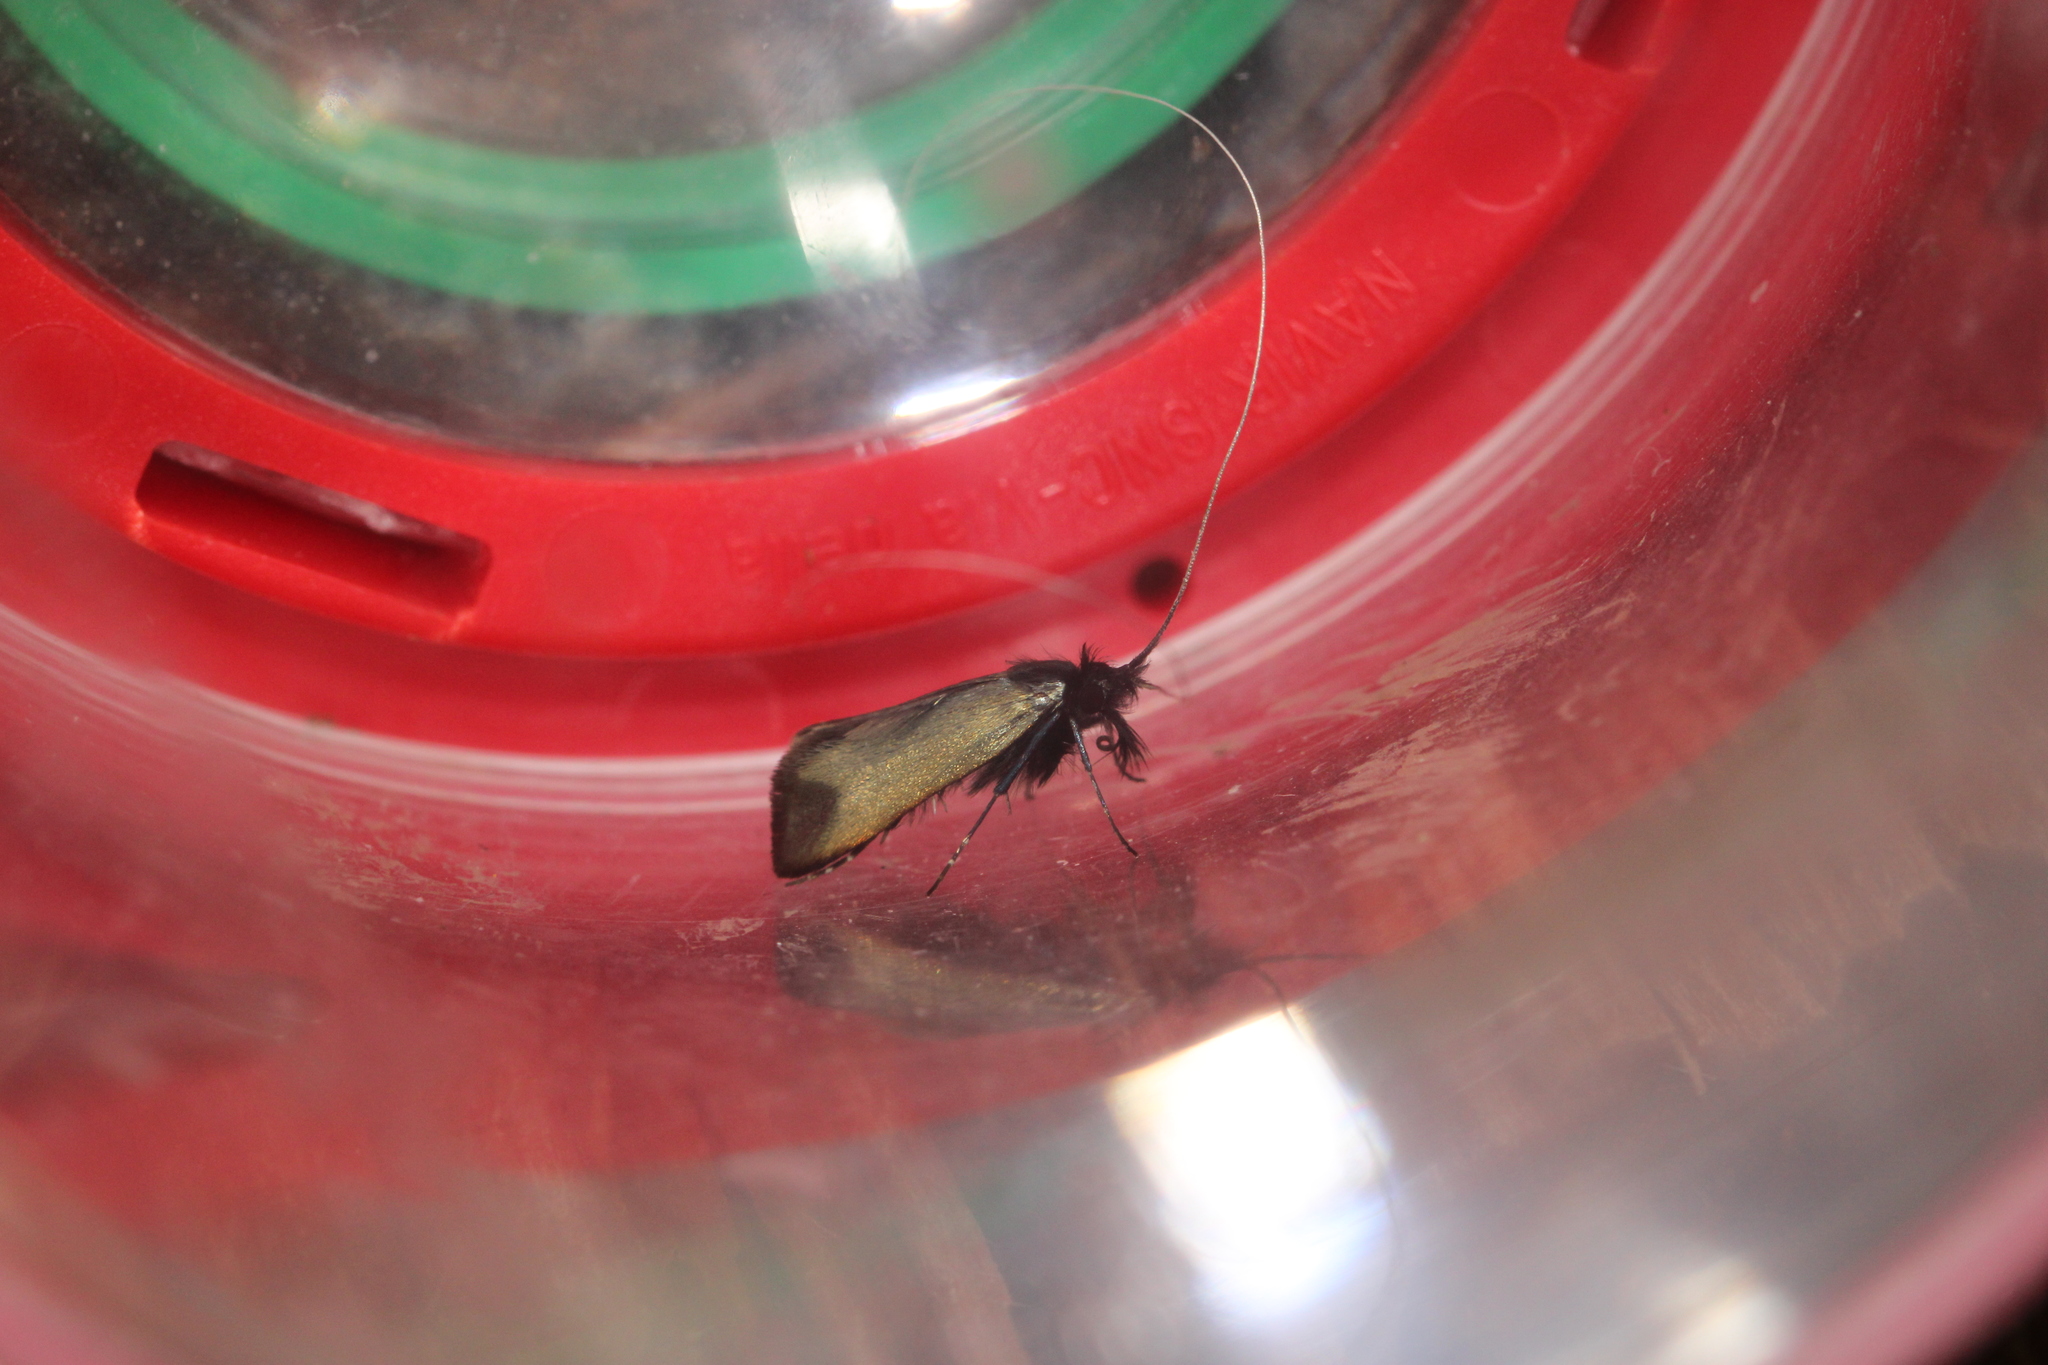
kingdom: Animalia
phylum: Arthropoda
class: Insecta
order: Lepidoptera
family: Adelidae
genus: Adela
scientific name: Adela viridella
